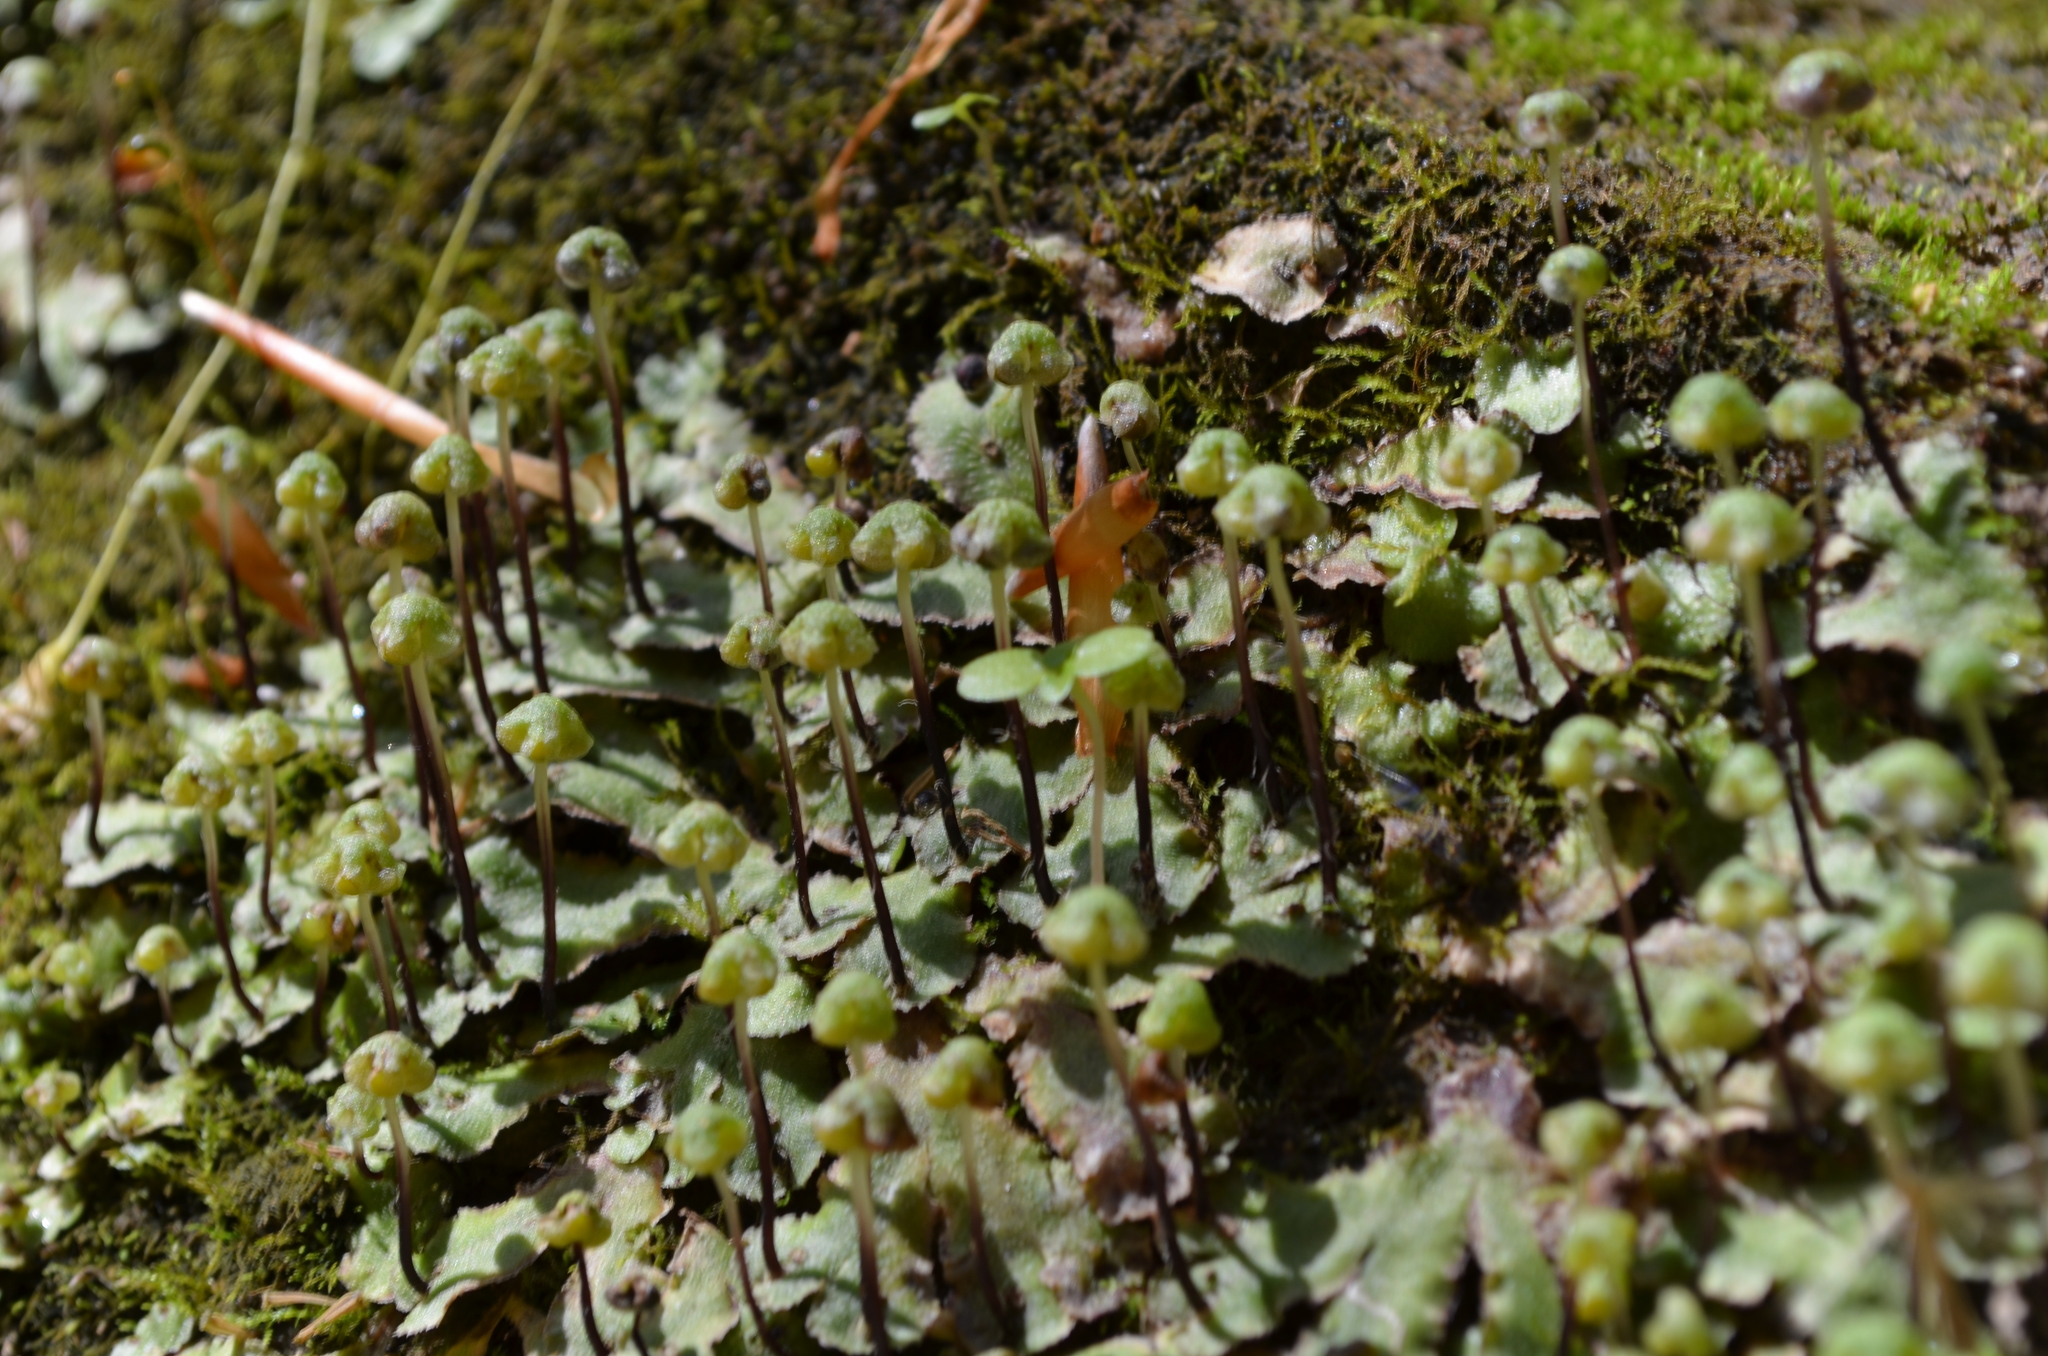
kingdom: Plantae
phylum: Marchantiophyta
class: Marchantiopsida
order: Marchantiales
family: Aytoniaceae
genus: Reboulia
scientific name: Reboulia hemisphaerica
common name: Purple-margined liverwort
